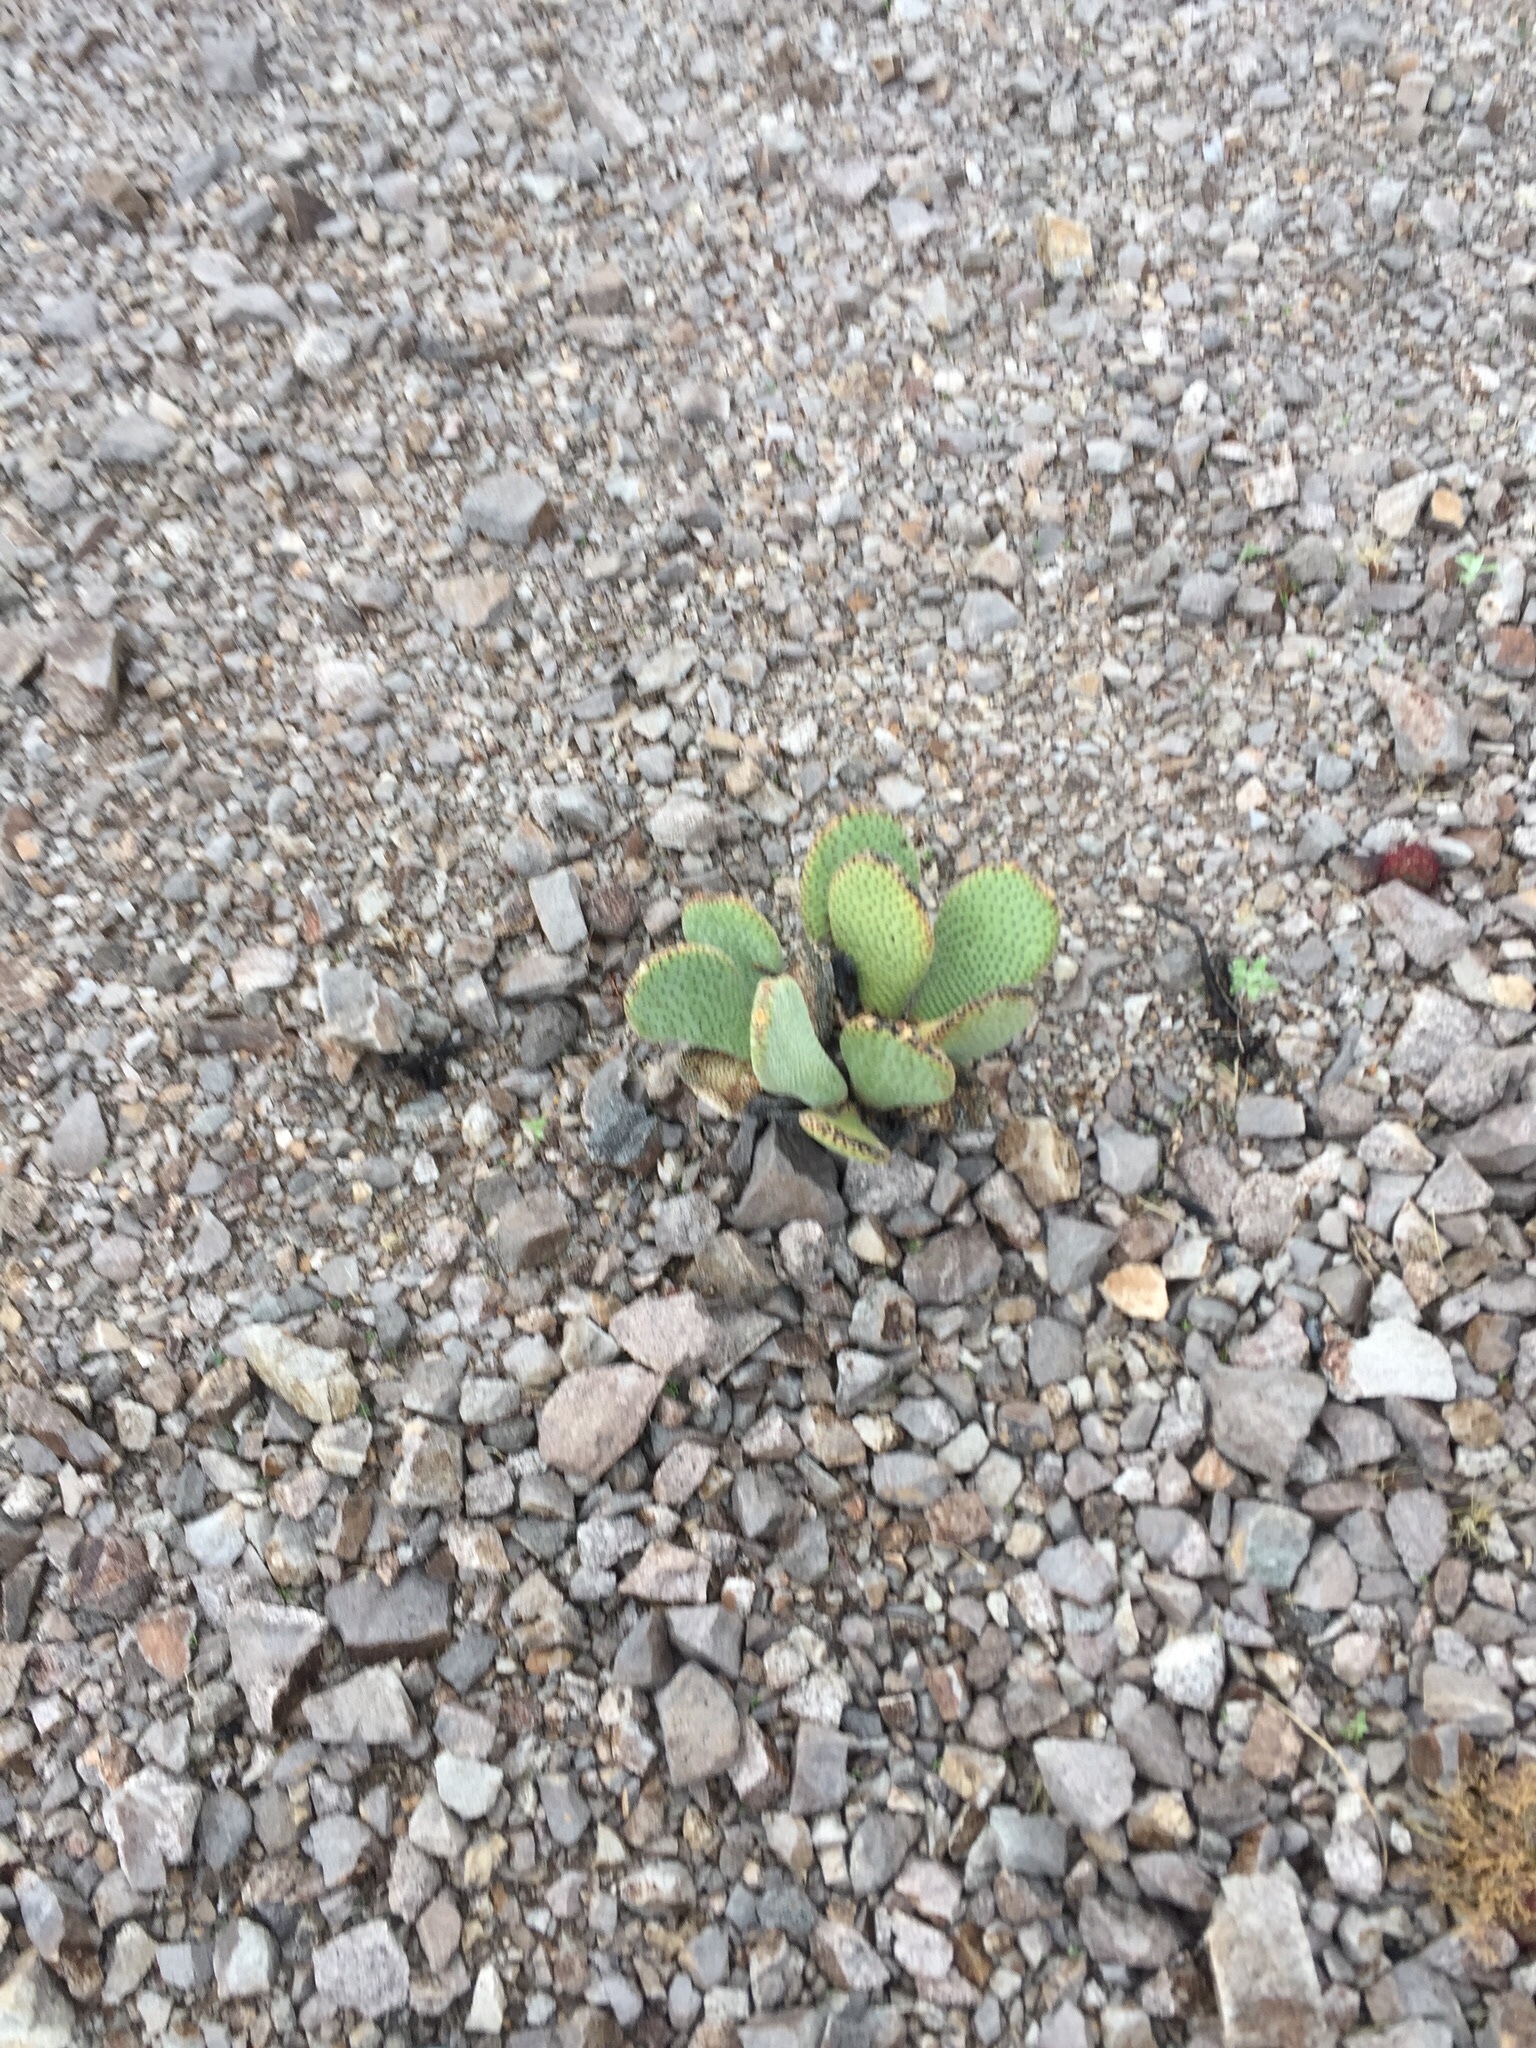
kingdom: Plantae
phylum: Tracheophyta
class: Magnoliopsida
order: Caryophyllales
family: Cactaceae
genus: Opuntia
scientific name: Opuntia basilaris
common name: Beavertail prickly-pear
